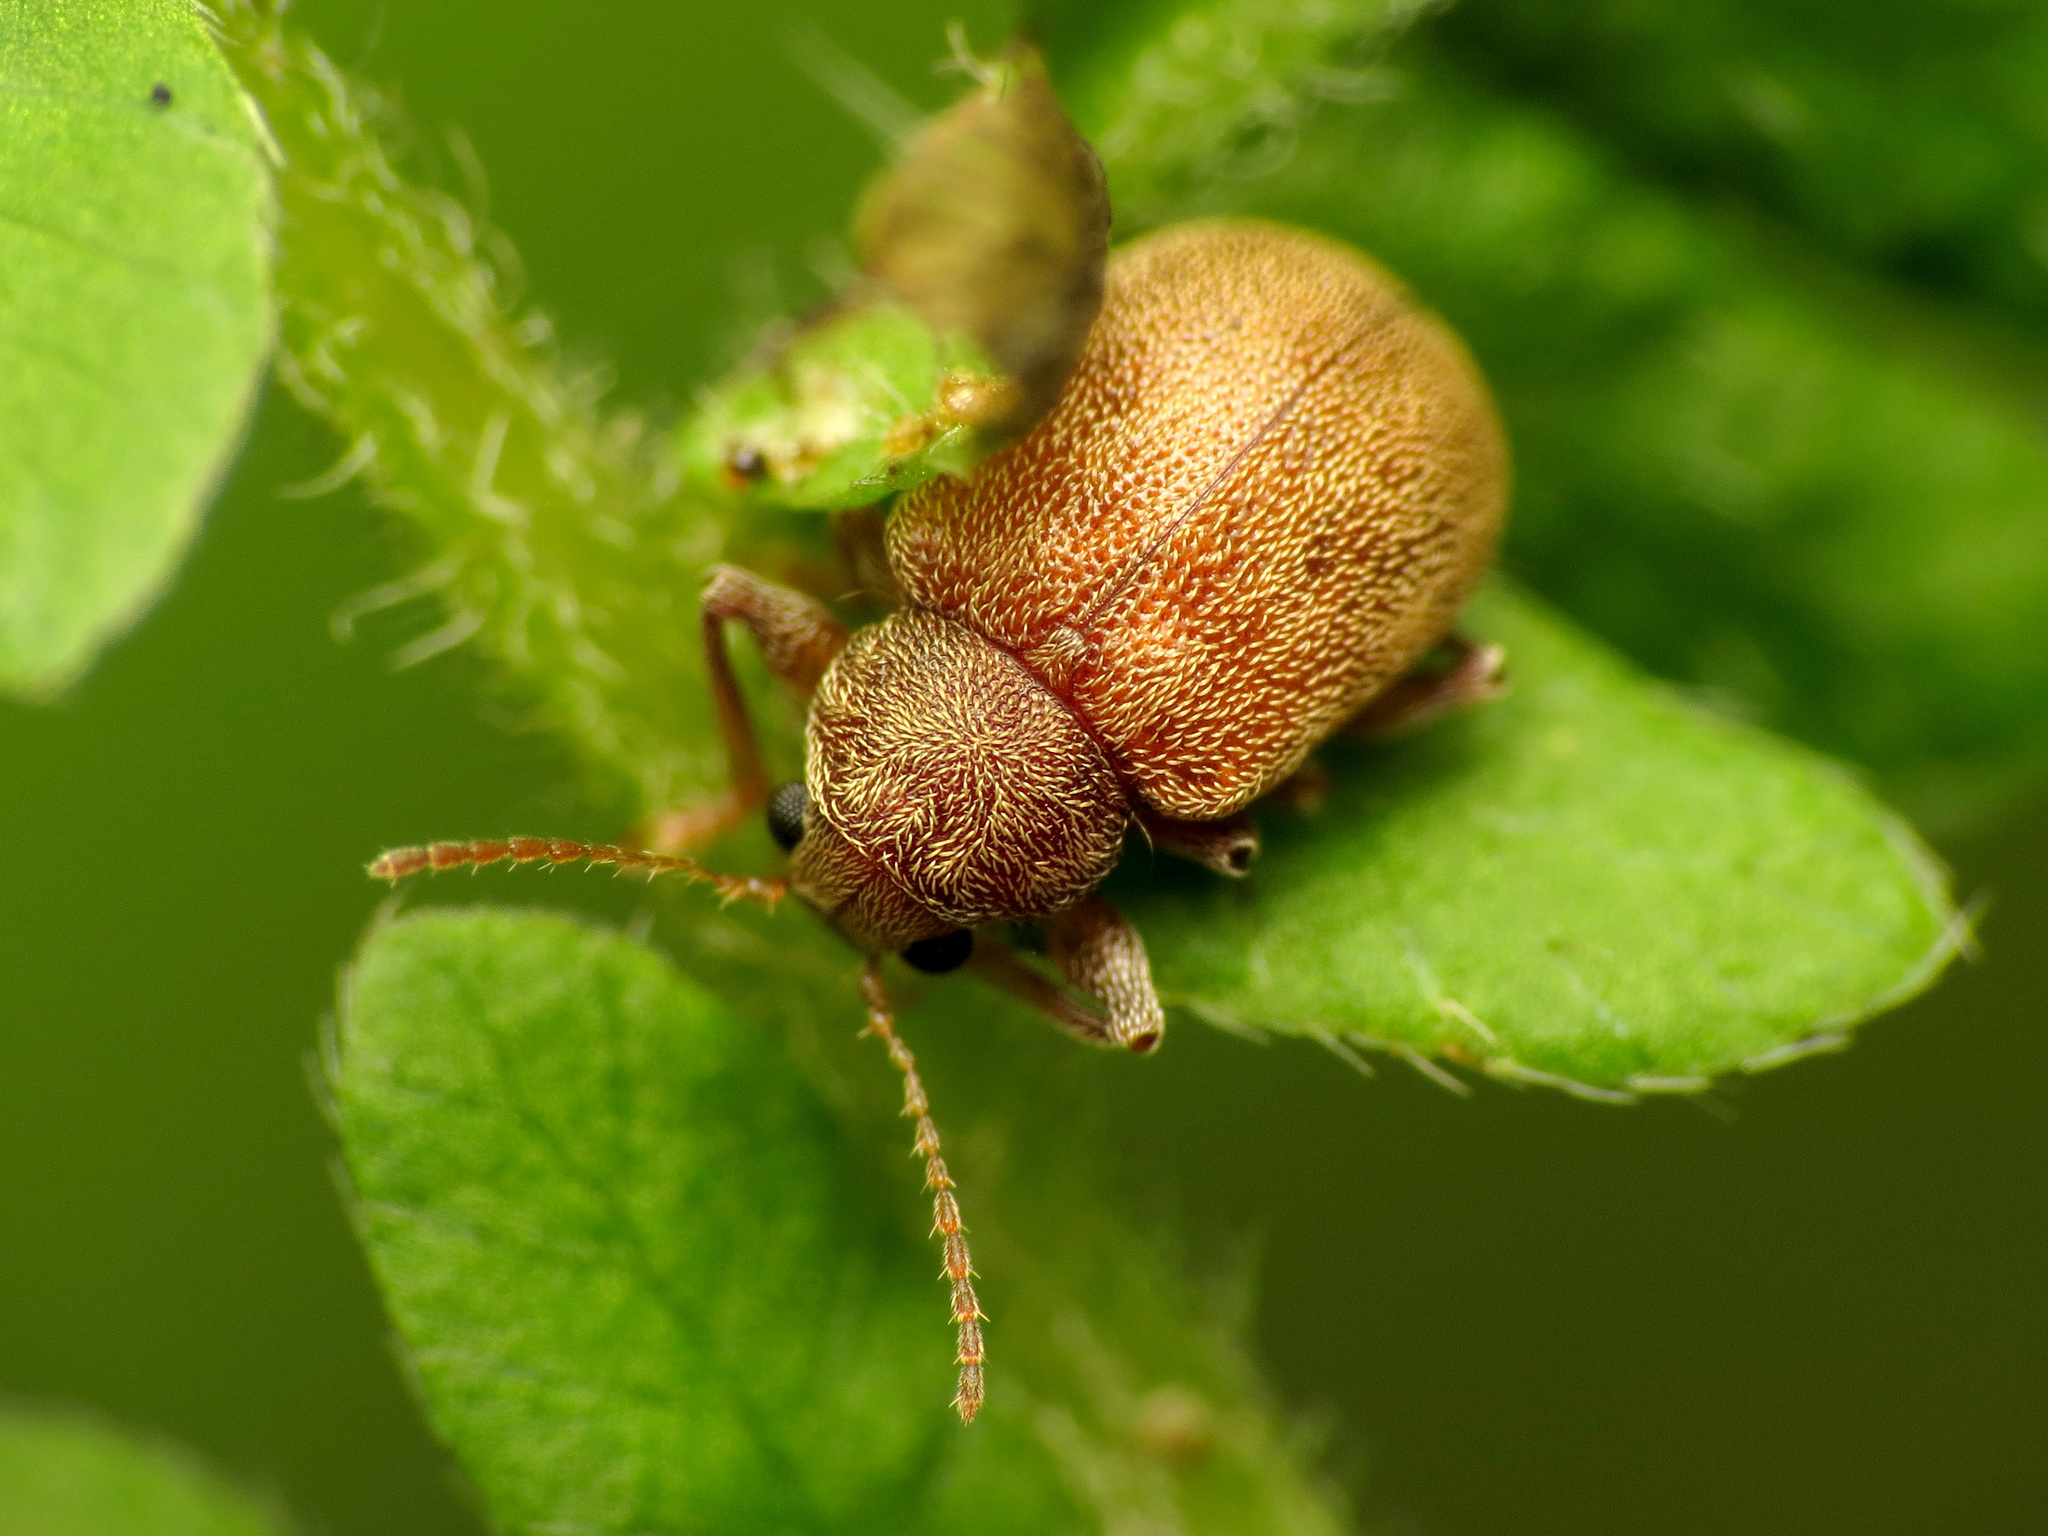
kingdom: Animalia
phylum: Arthropoda
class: Insecta
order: Coleoptera
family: Chrysomelidae
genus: Demotina
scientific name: Demotina modesta
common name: Leaf beetle
